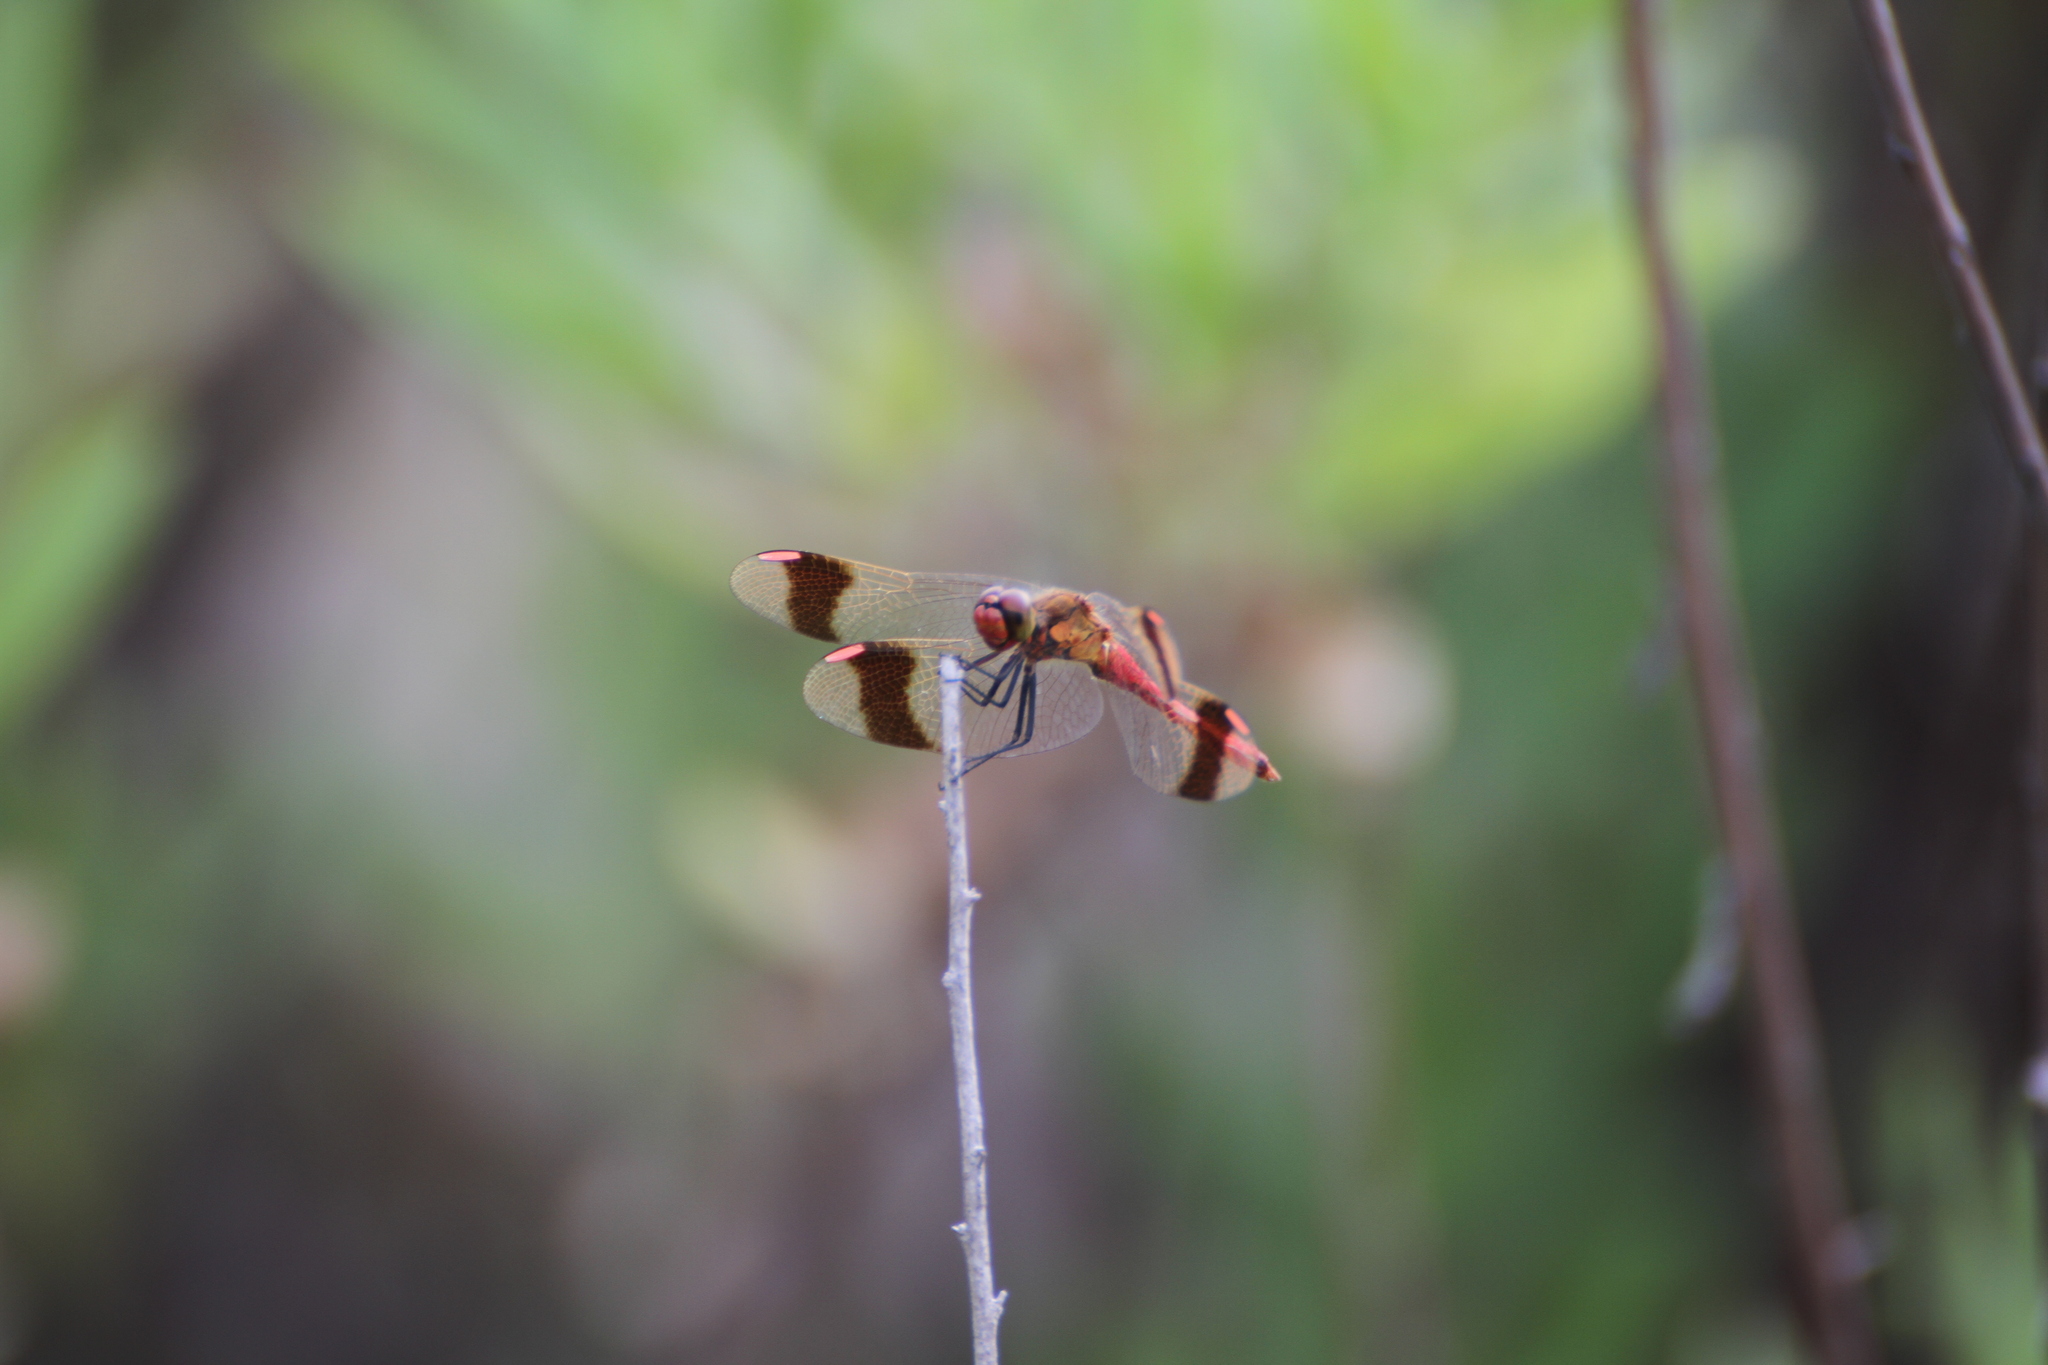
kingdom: Animalia
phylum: Arthropoda
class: Insecta
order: Odonata
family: Libellulidae
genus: Sympetrum
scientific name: Sympetrum pedemontanum
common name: Banded darter
